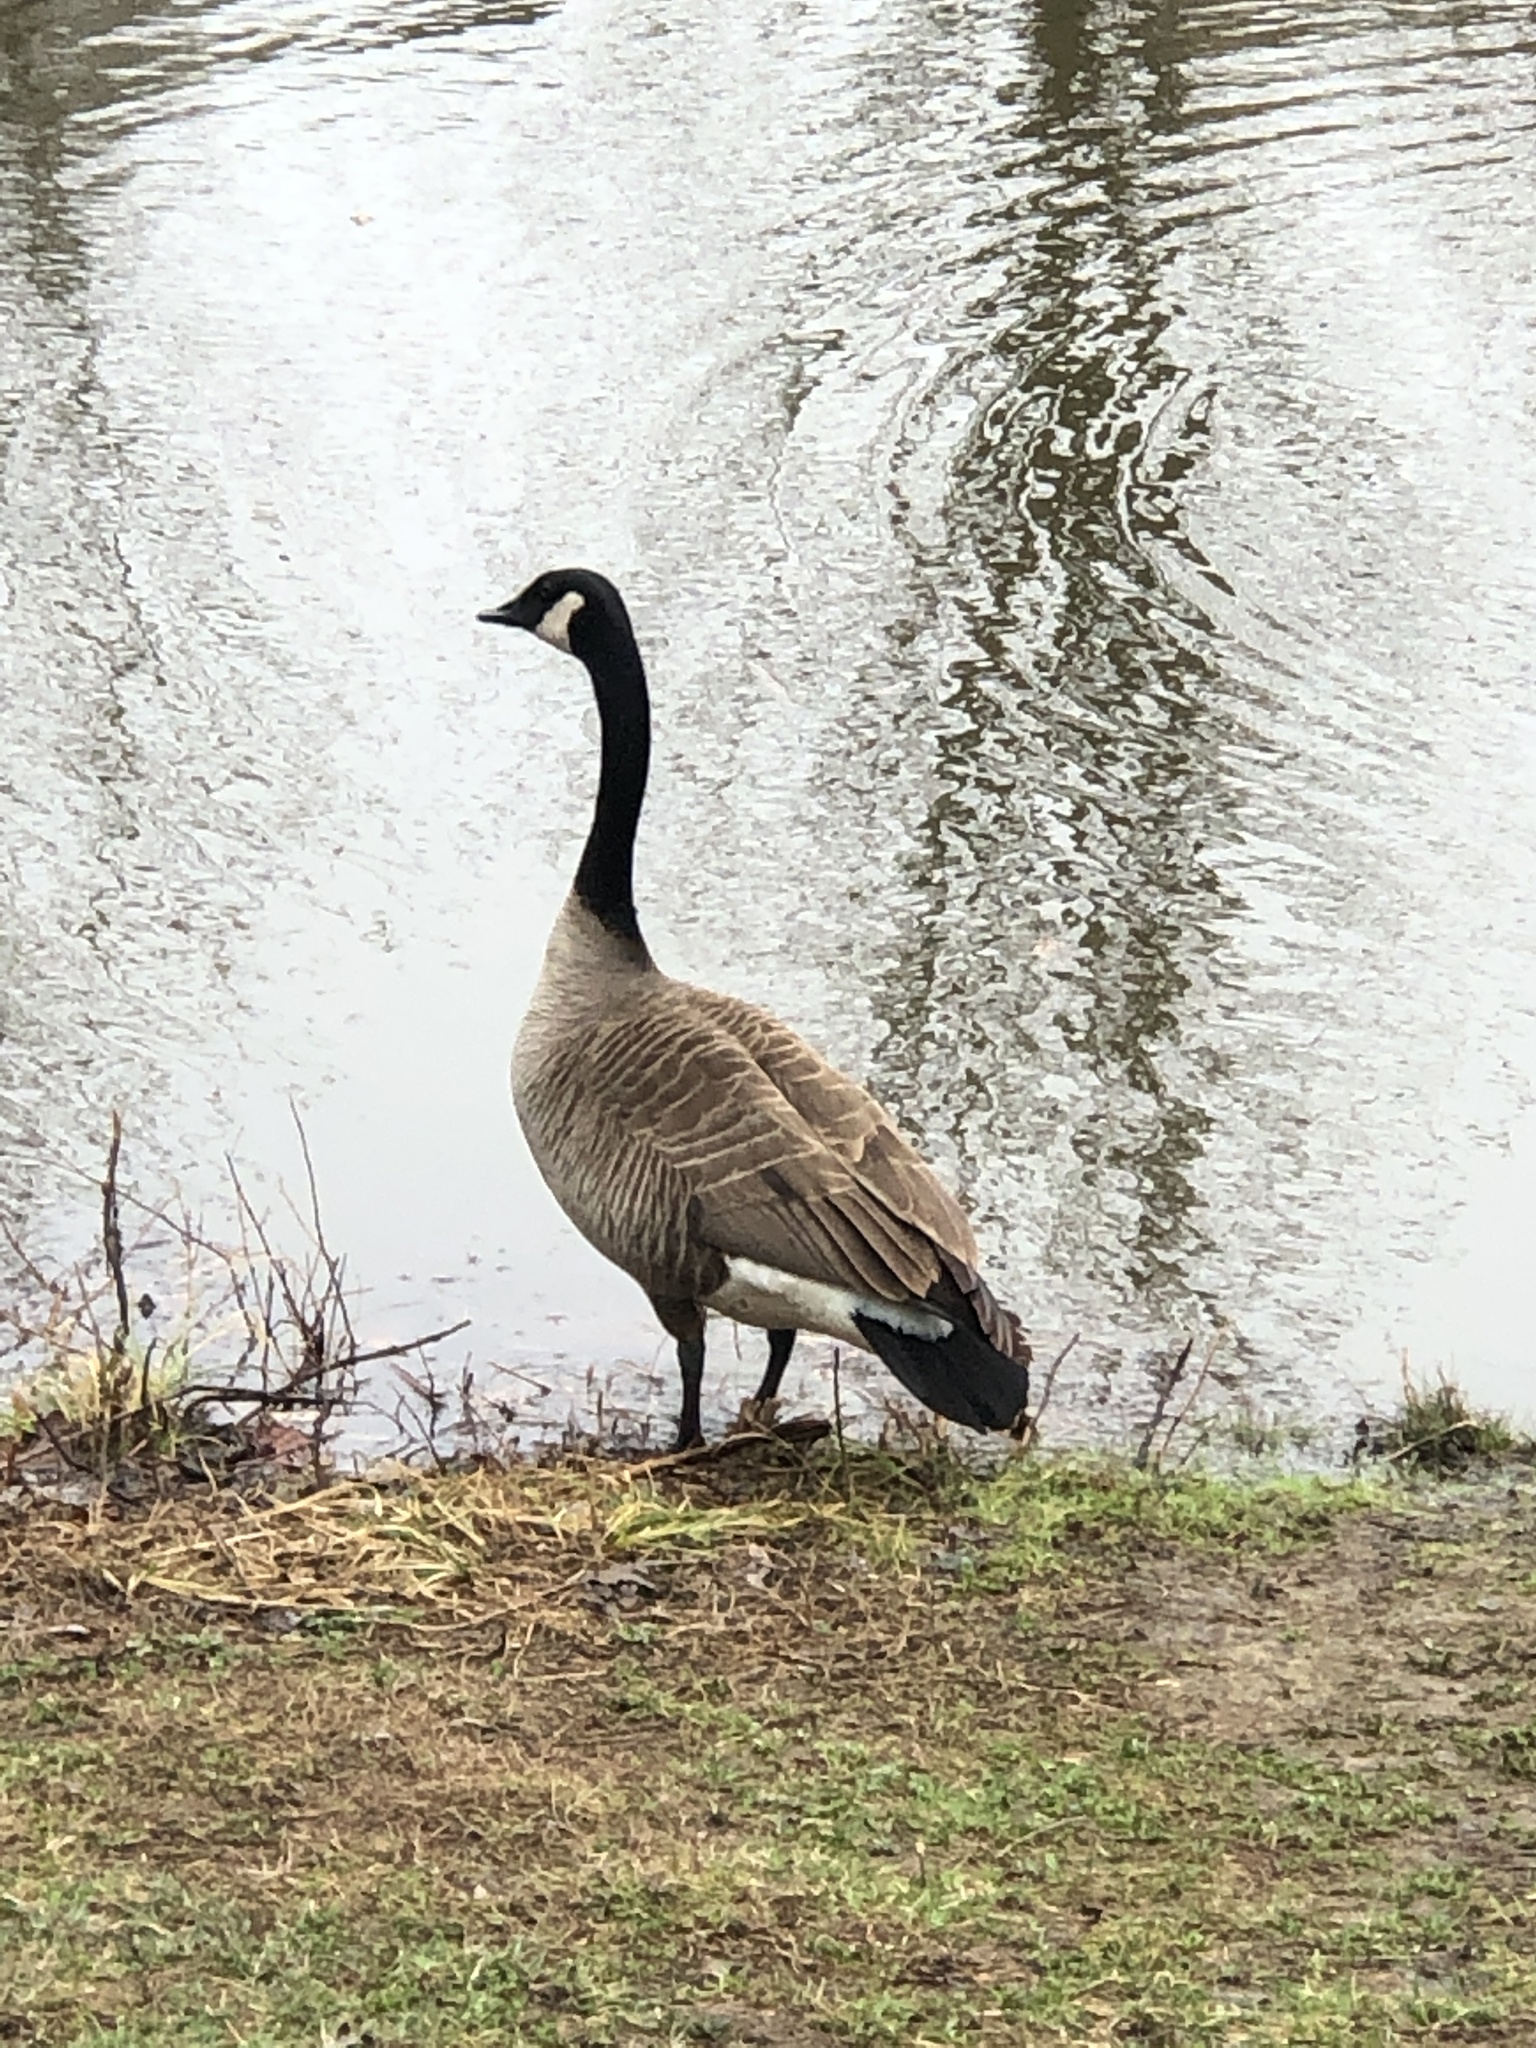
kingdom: Animalia
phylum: Chordata
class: Aves
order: Anseriformes
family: Anatidae
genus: Branta
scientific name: Branta canadensis
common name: Canada goose
